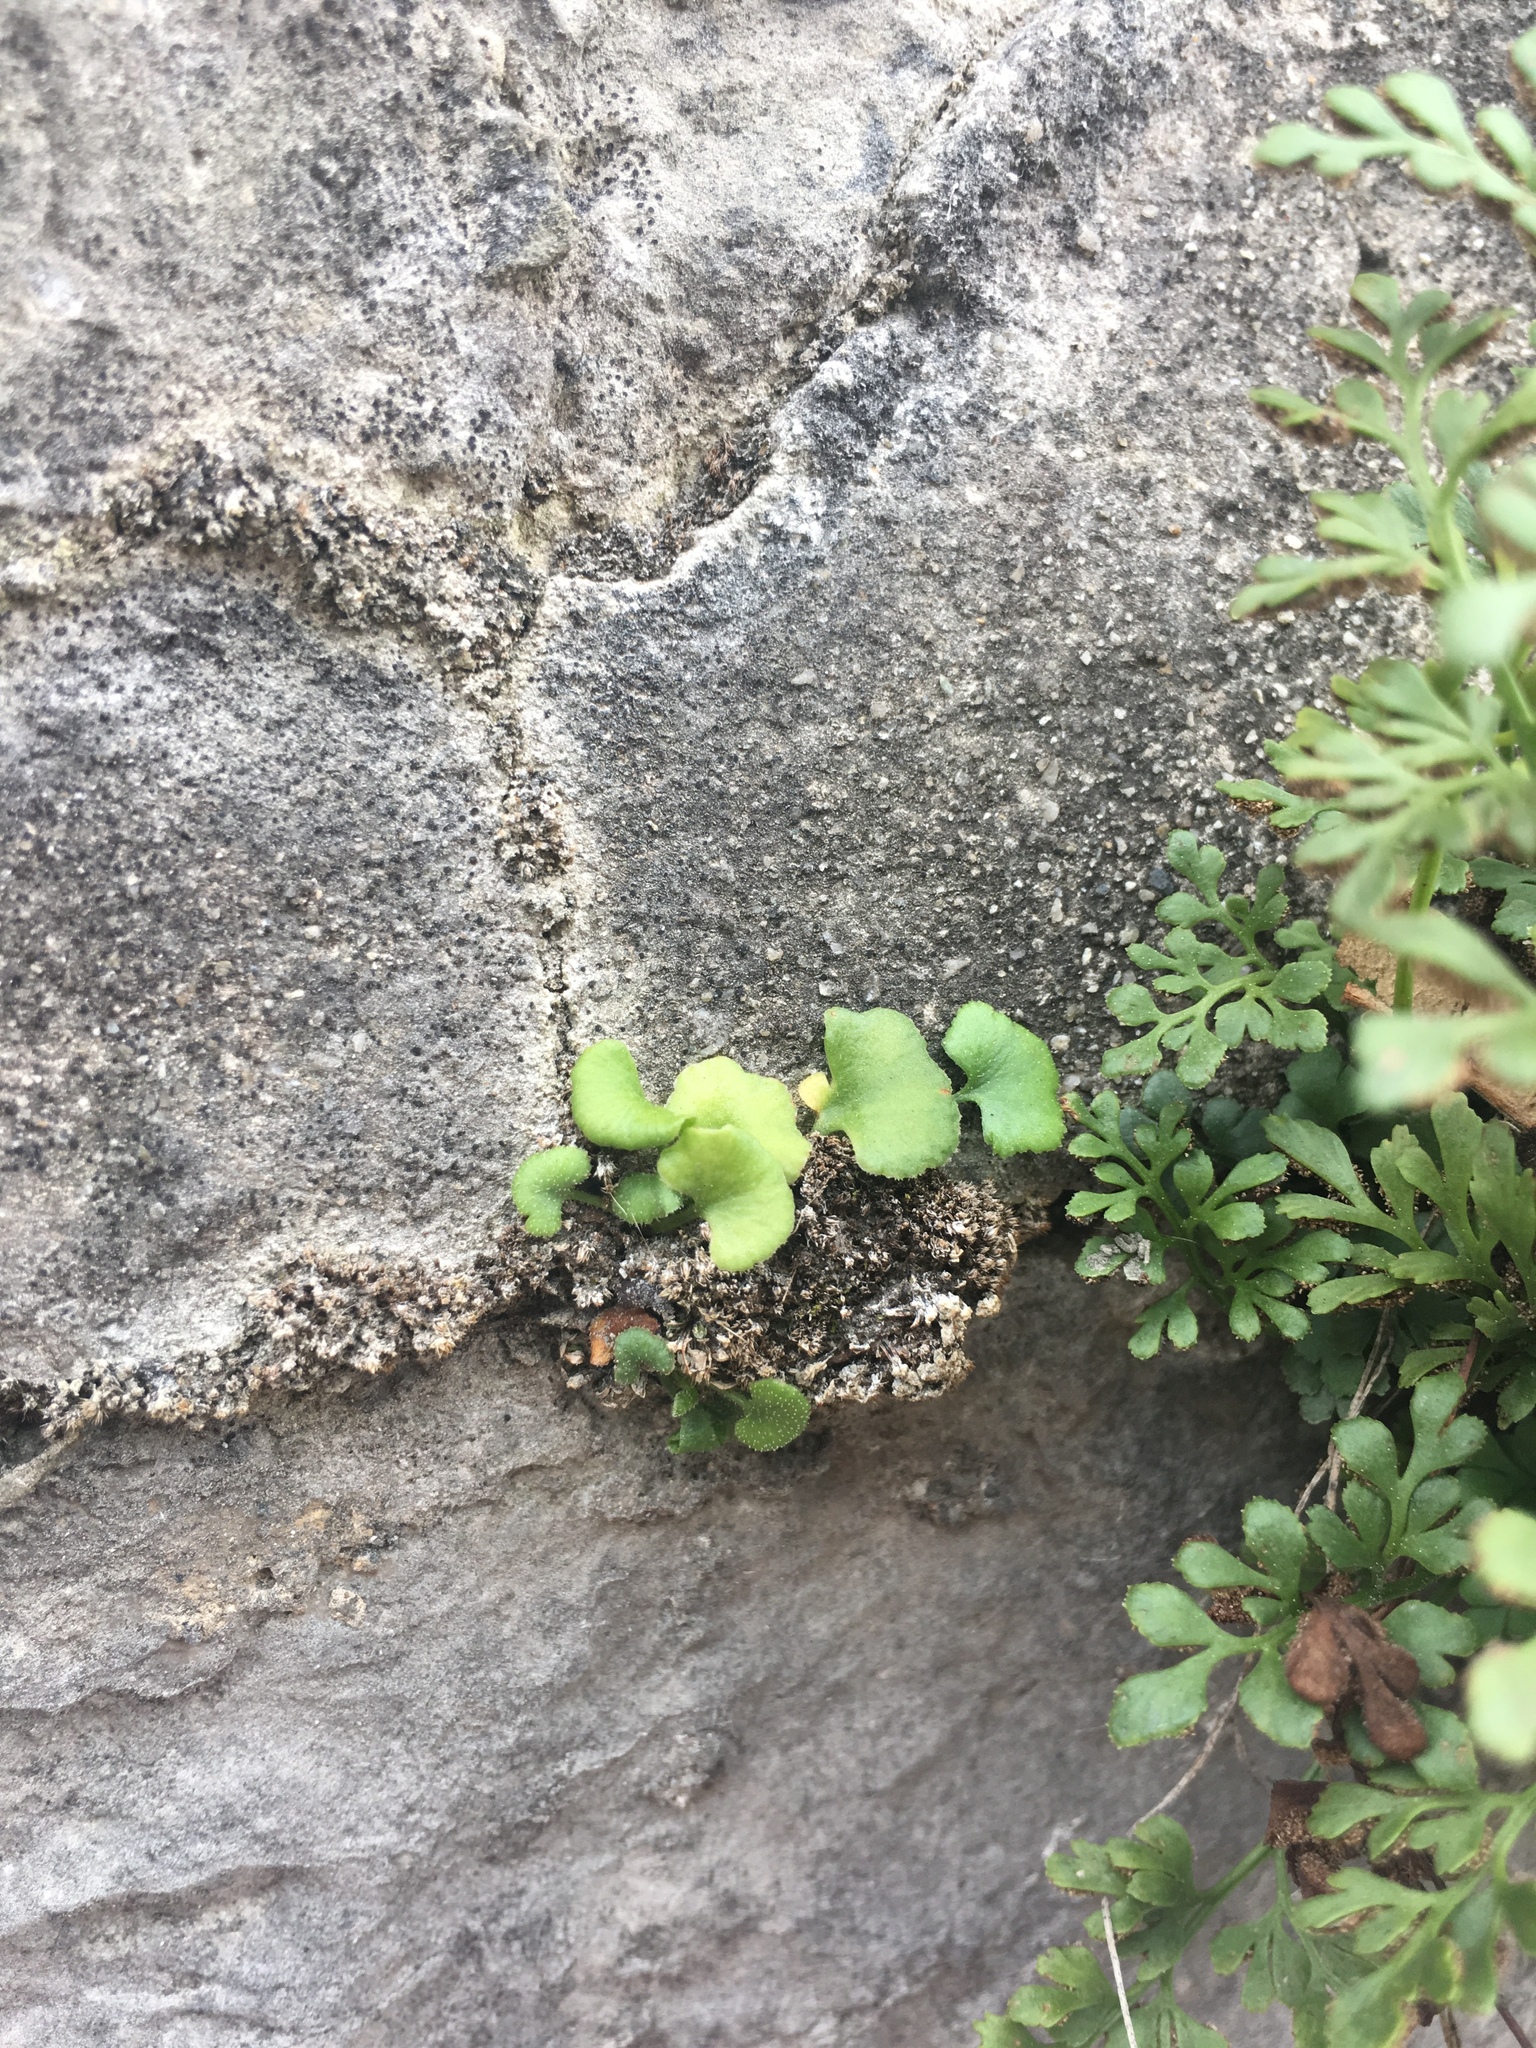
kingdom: Plantae
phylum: Tracheophyta
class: Polypodiopsida
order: Polypodiales
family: Aspleniaceae
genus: Asplenium
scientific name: Asplenium ruta-muraria
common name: Wall-rue
